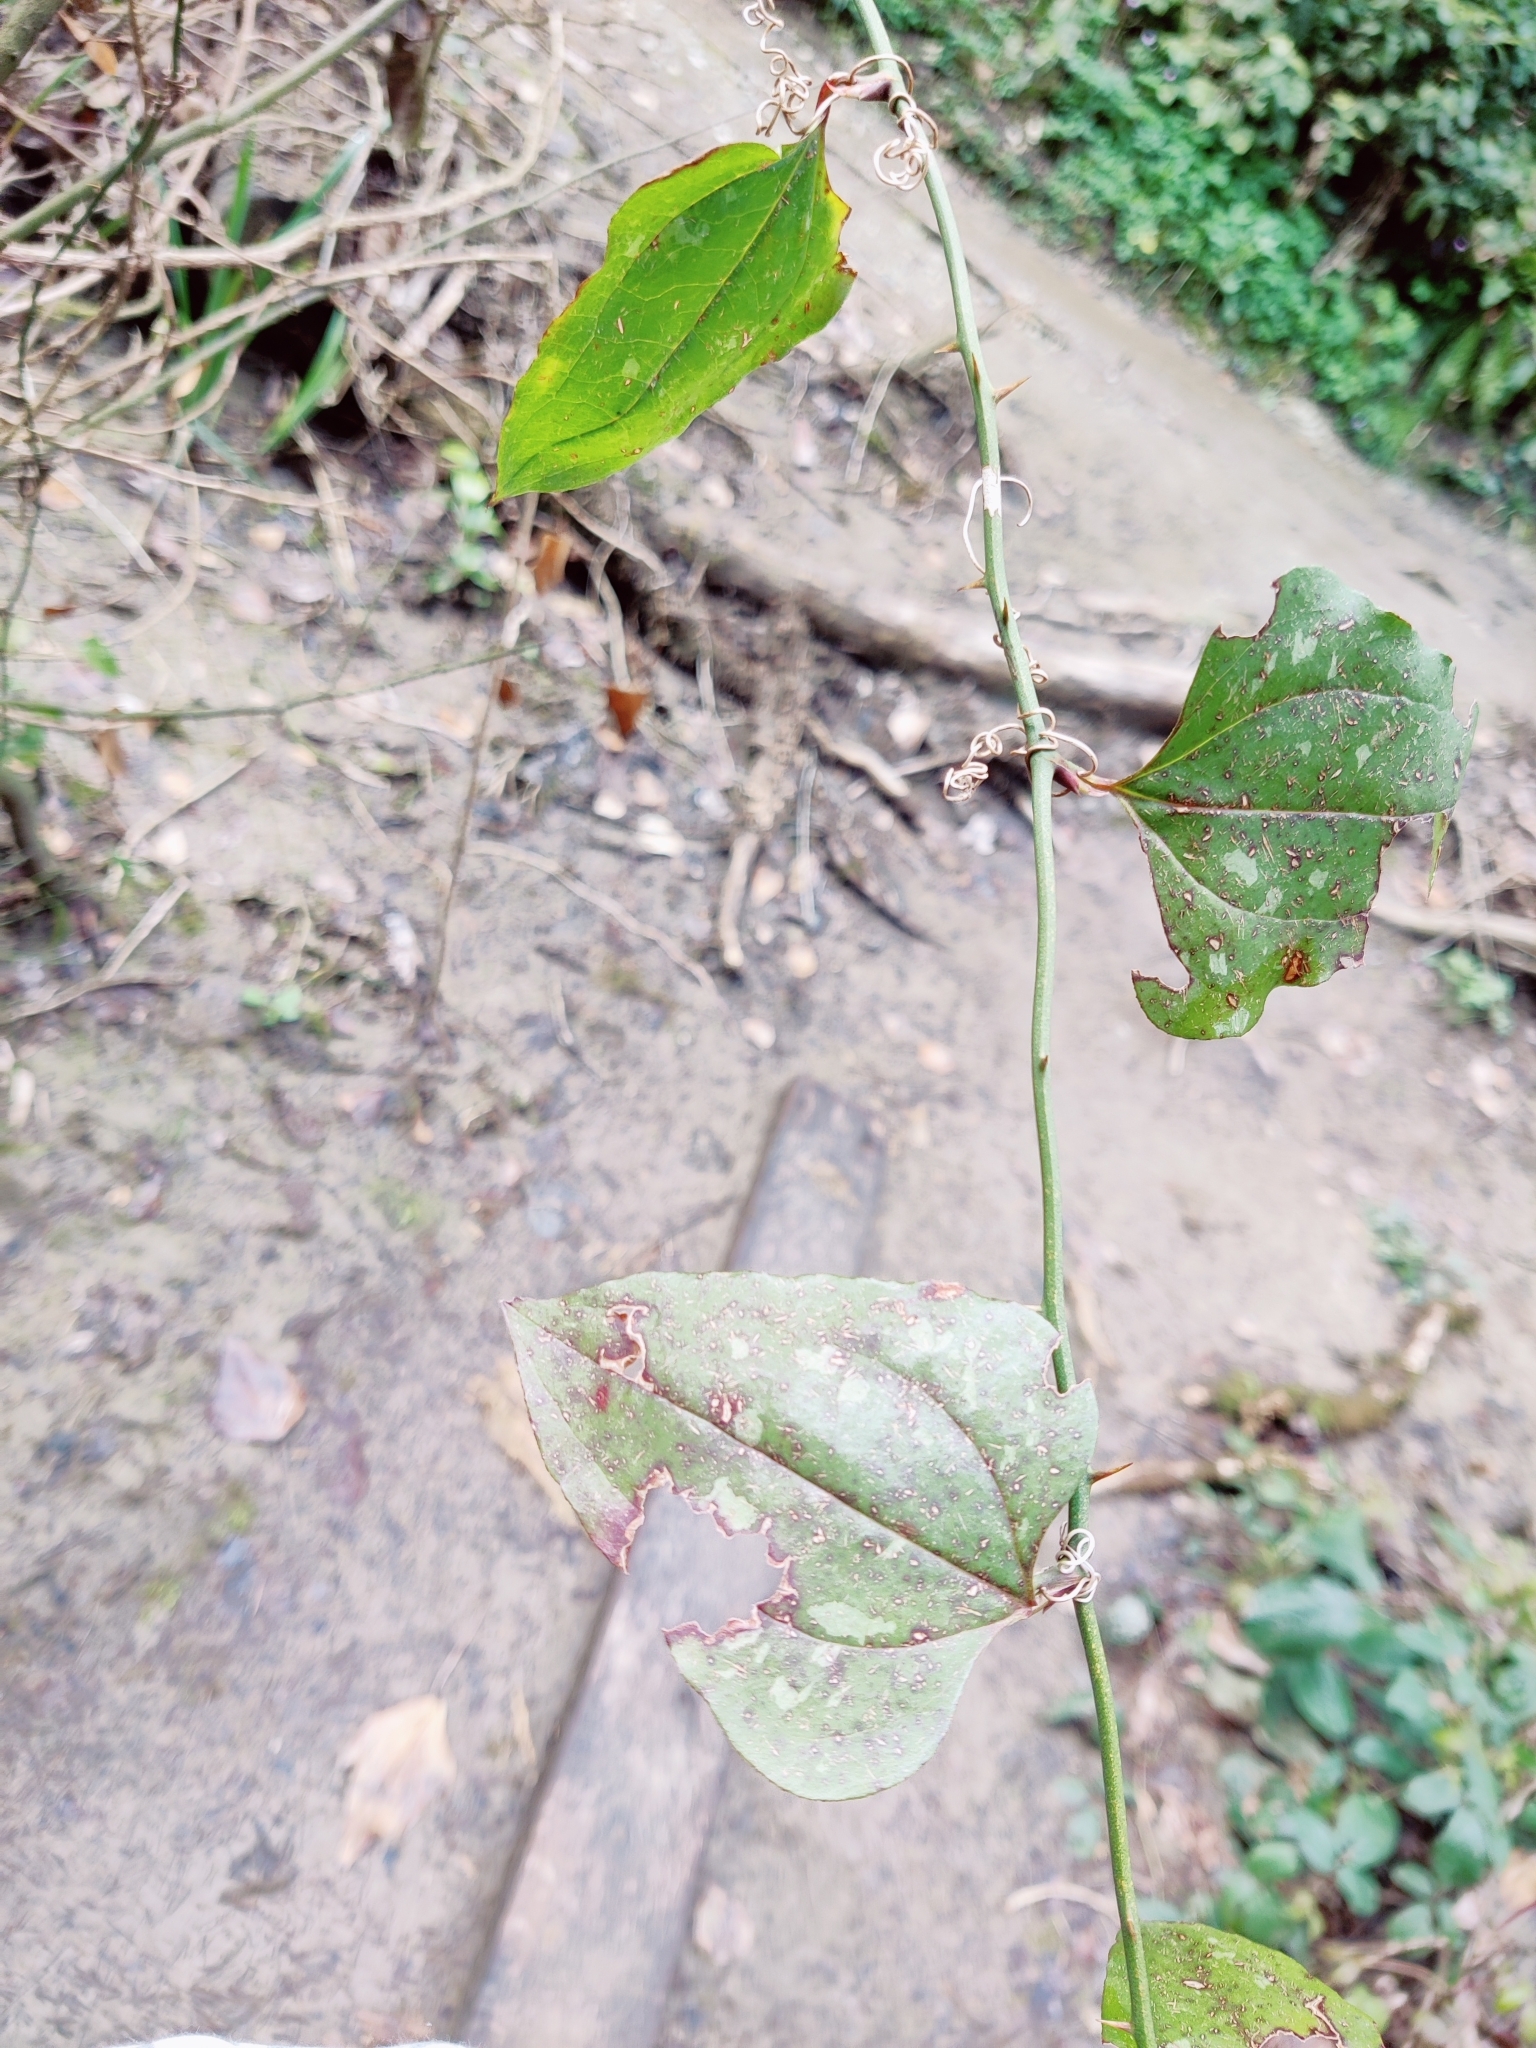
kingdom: Plantae
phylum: Tracheophyta
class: Liliopsida
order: Liliales
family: Smilacaceae
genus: Smilax
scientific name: Smilax excelsa
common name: Larger smilax
